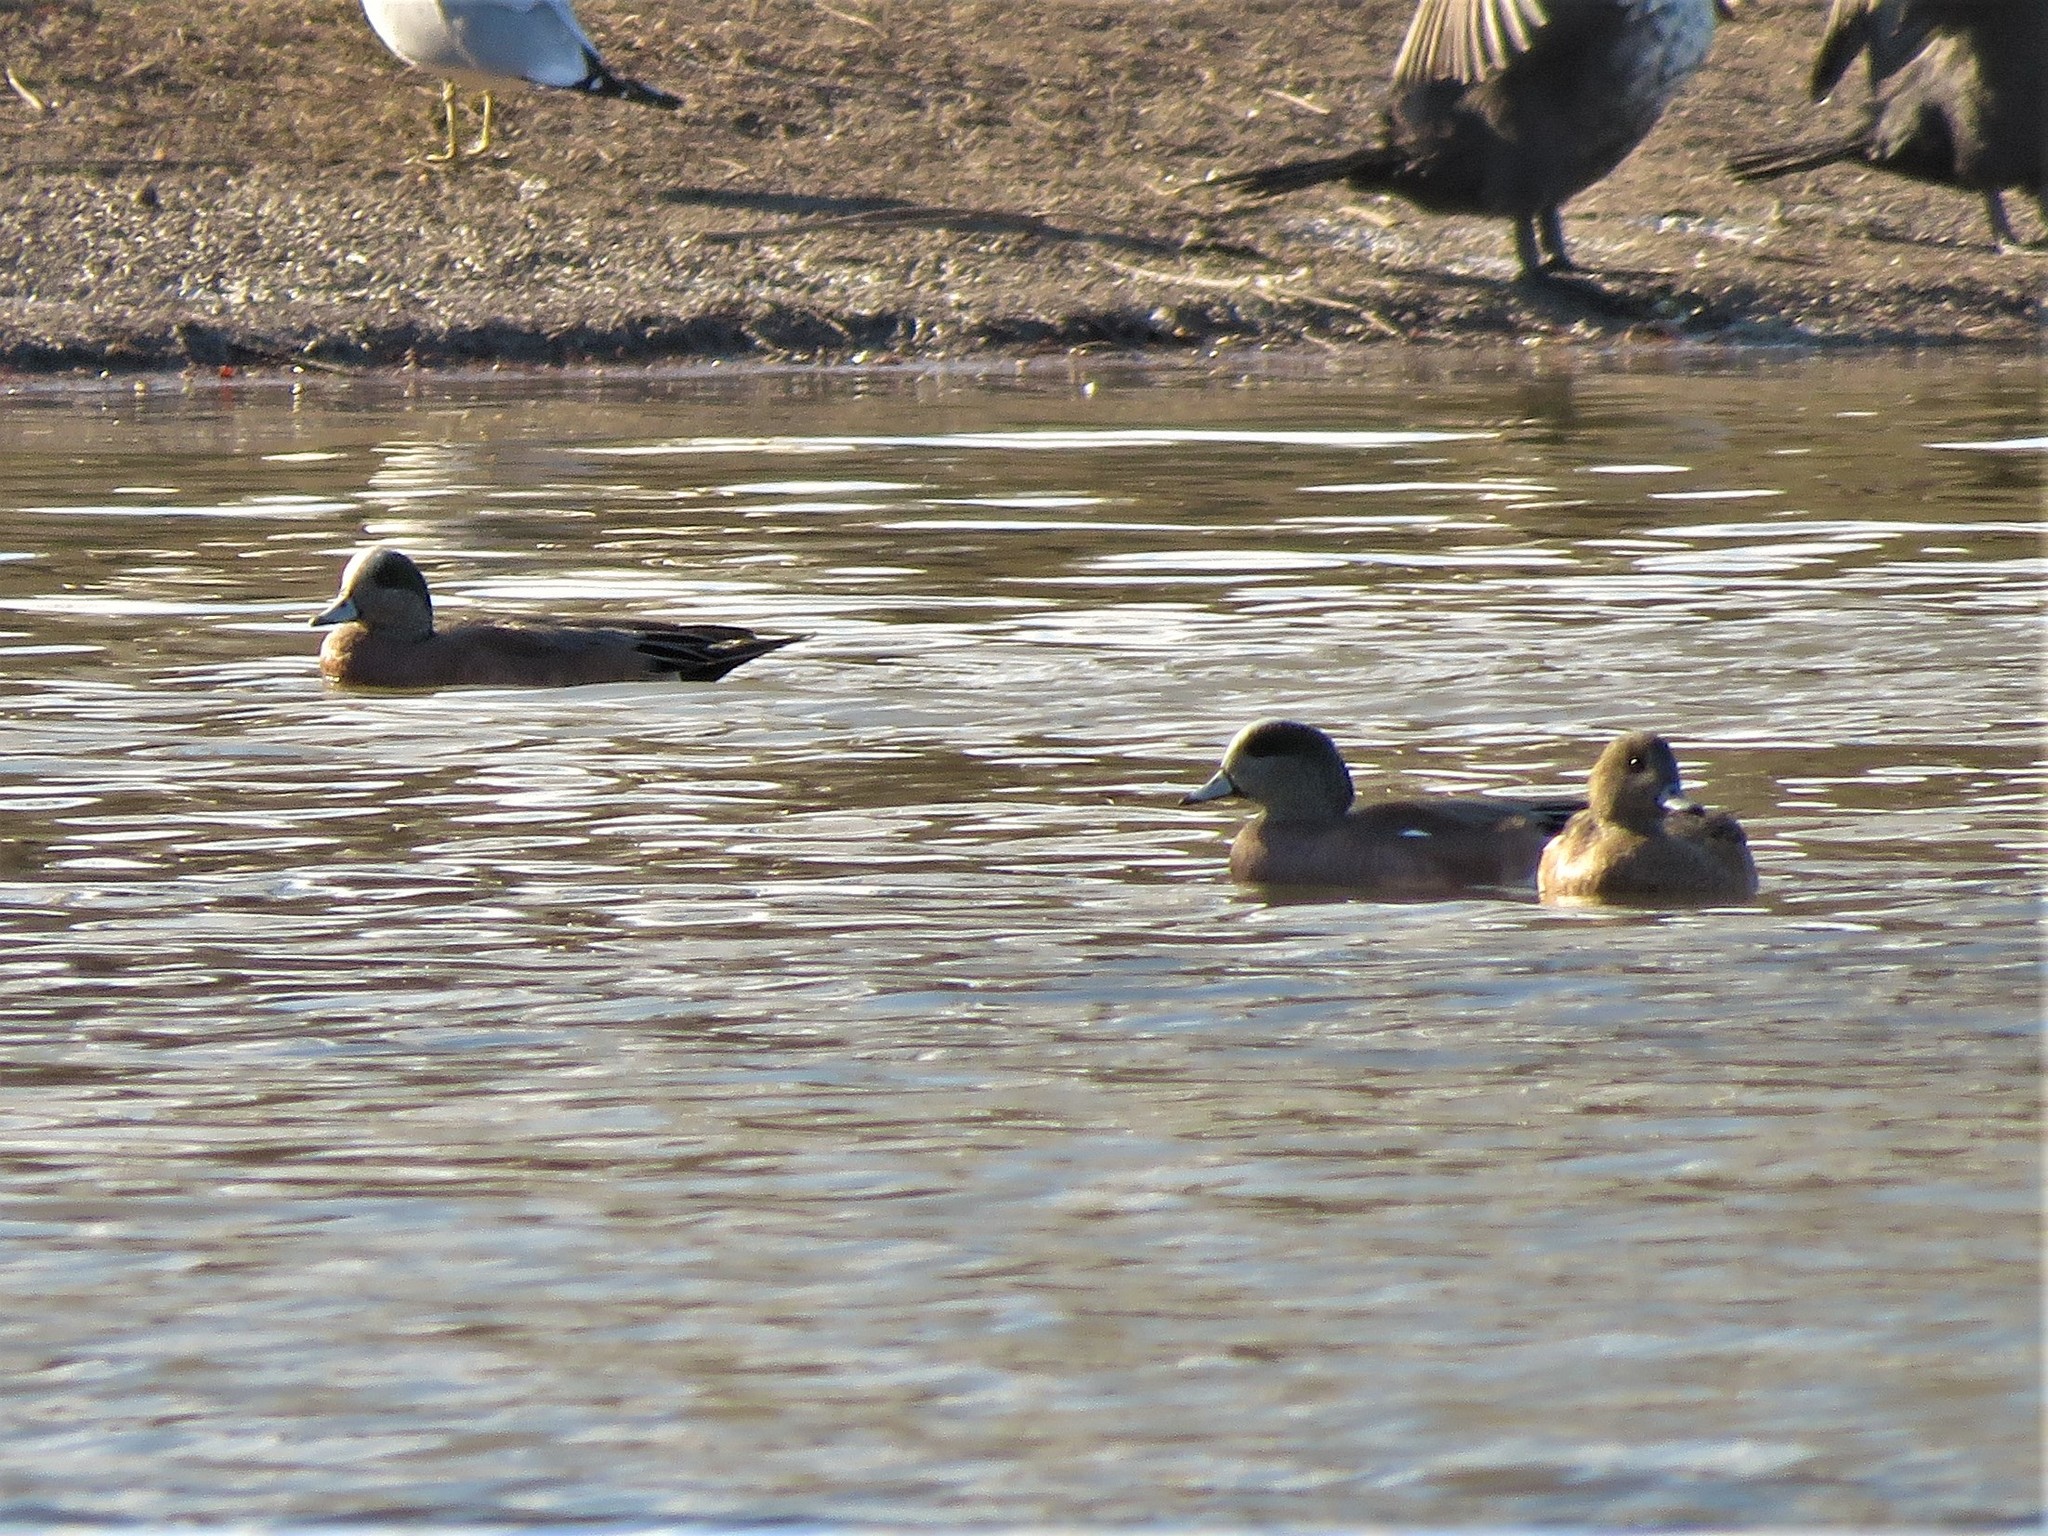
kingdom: Animalia
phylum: Chordata
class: Aves
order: Anseriformes
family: Anatidae
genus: Mareca
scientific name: Mareca americana
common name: American wigeon
